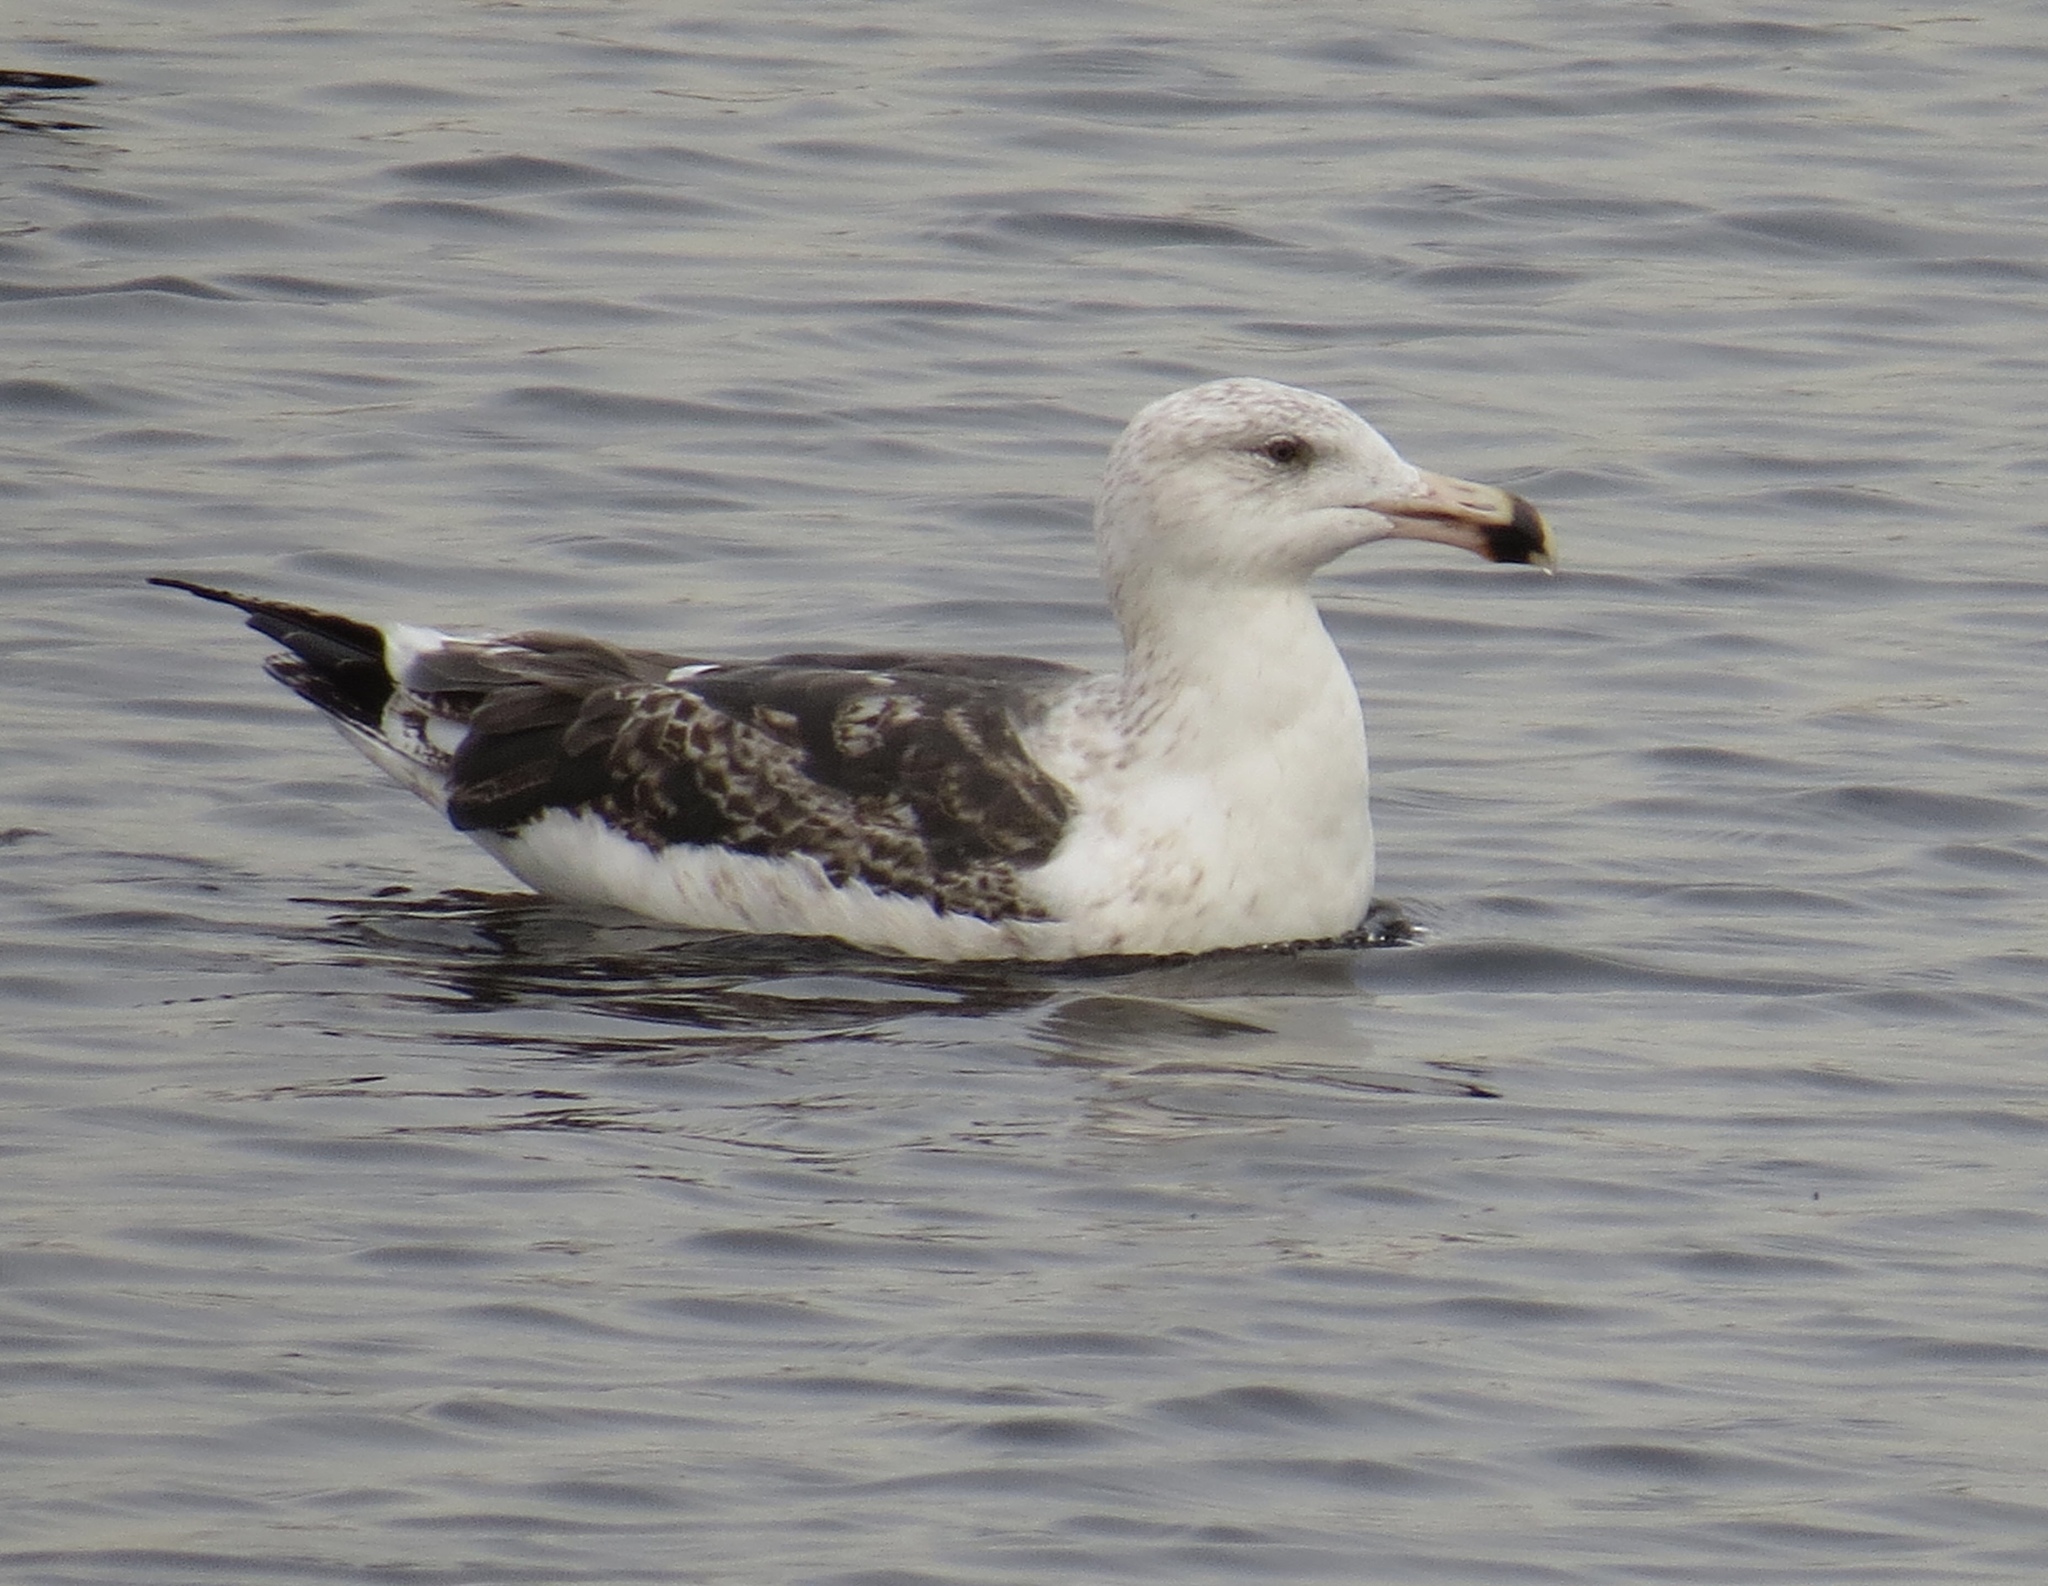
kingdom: Animalia
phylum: Chordata
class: Aves
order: Charadriiformes
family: Laridae
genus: Larus
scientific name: Larus marinus
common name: Great black-backed gull
